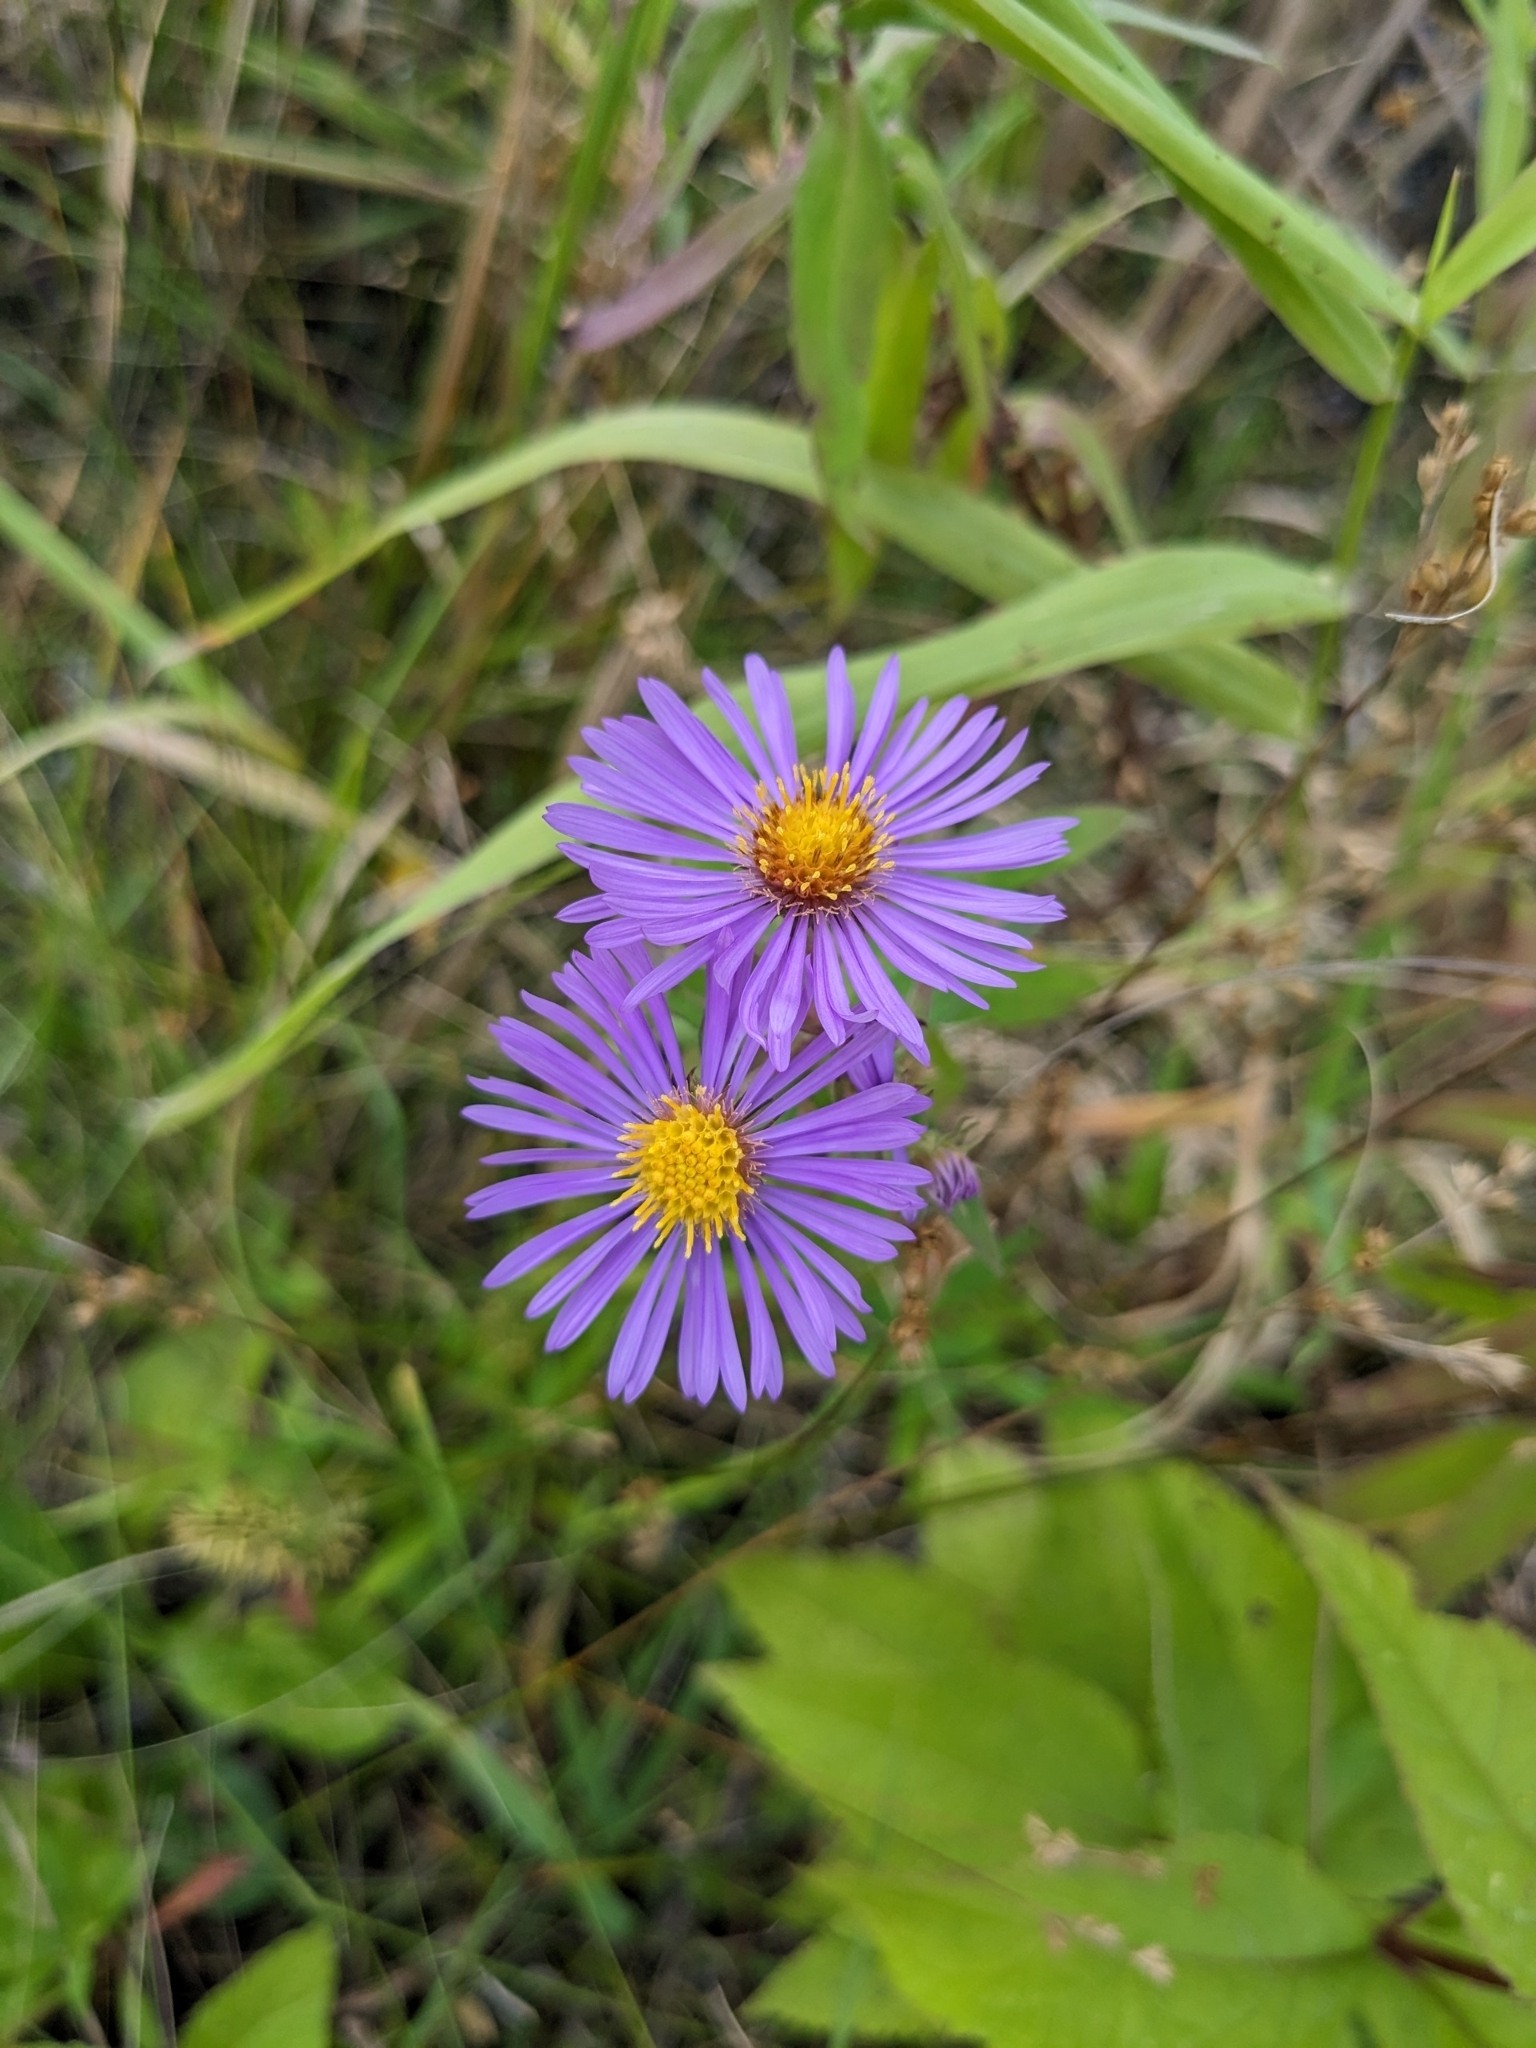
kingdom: Plantae
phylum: Tracheophyta
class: Magnoliopsida
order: Asterales
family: Asteraceae
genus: Symphyotrichum
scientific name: Symphyotrichum novae-angliae
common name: Michaelmas daisy
